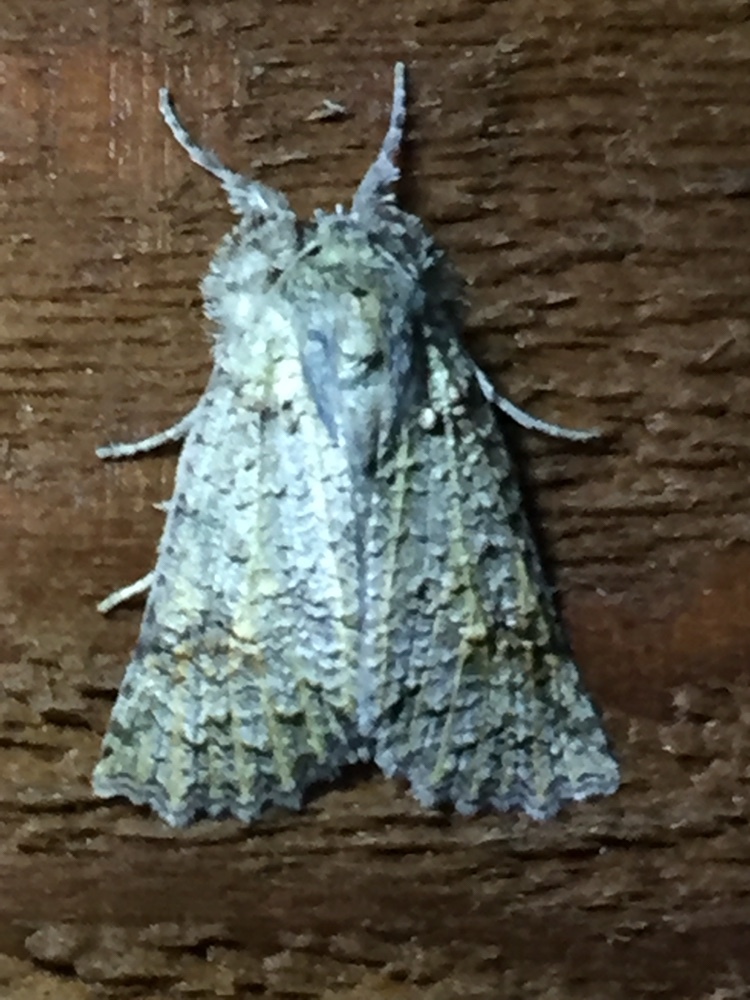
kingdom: Animalia
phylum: Arthropoda
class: Insecta
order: Lepidoptera
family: Geometridae
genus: Declana
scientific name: Declana floccosa
